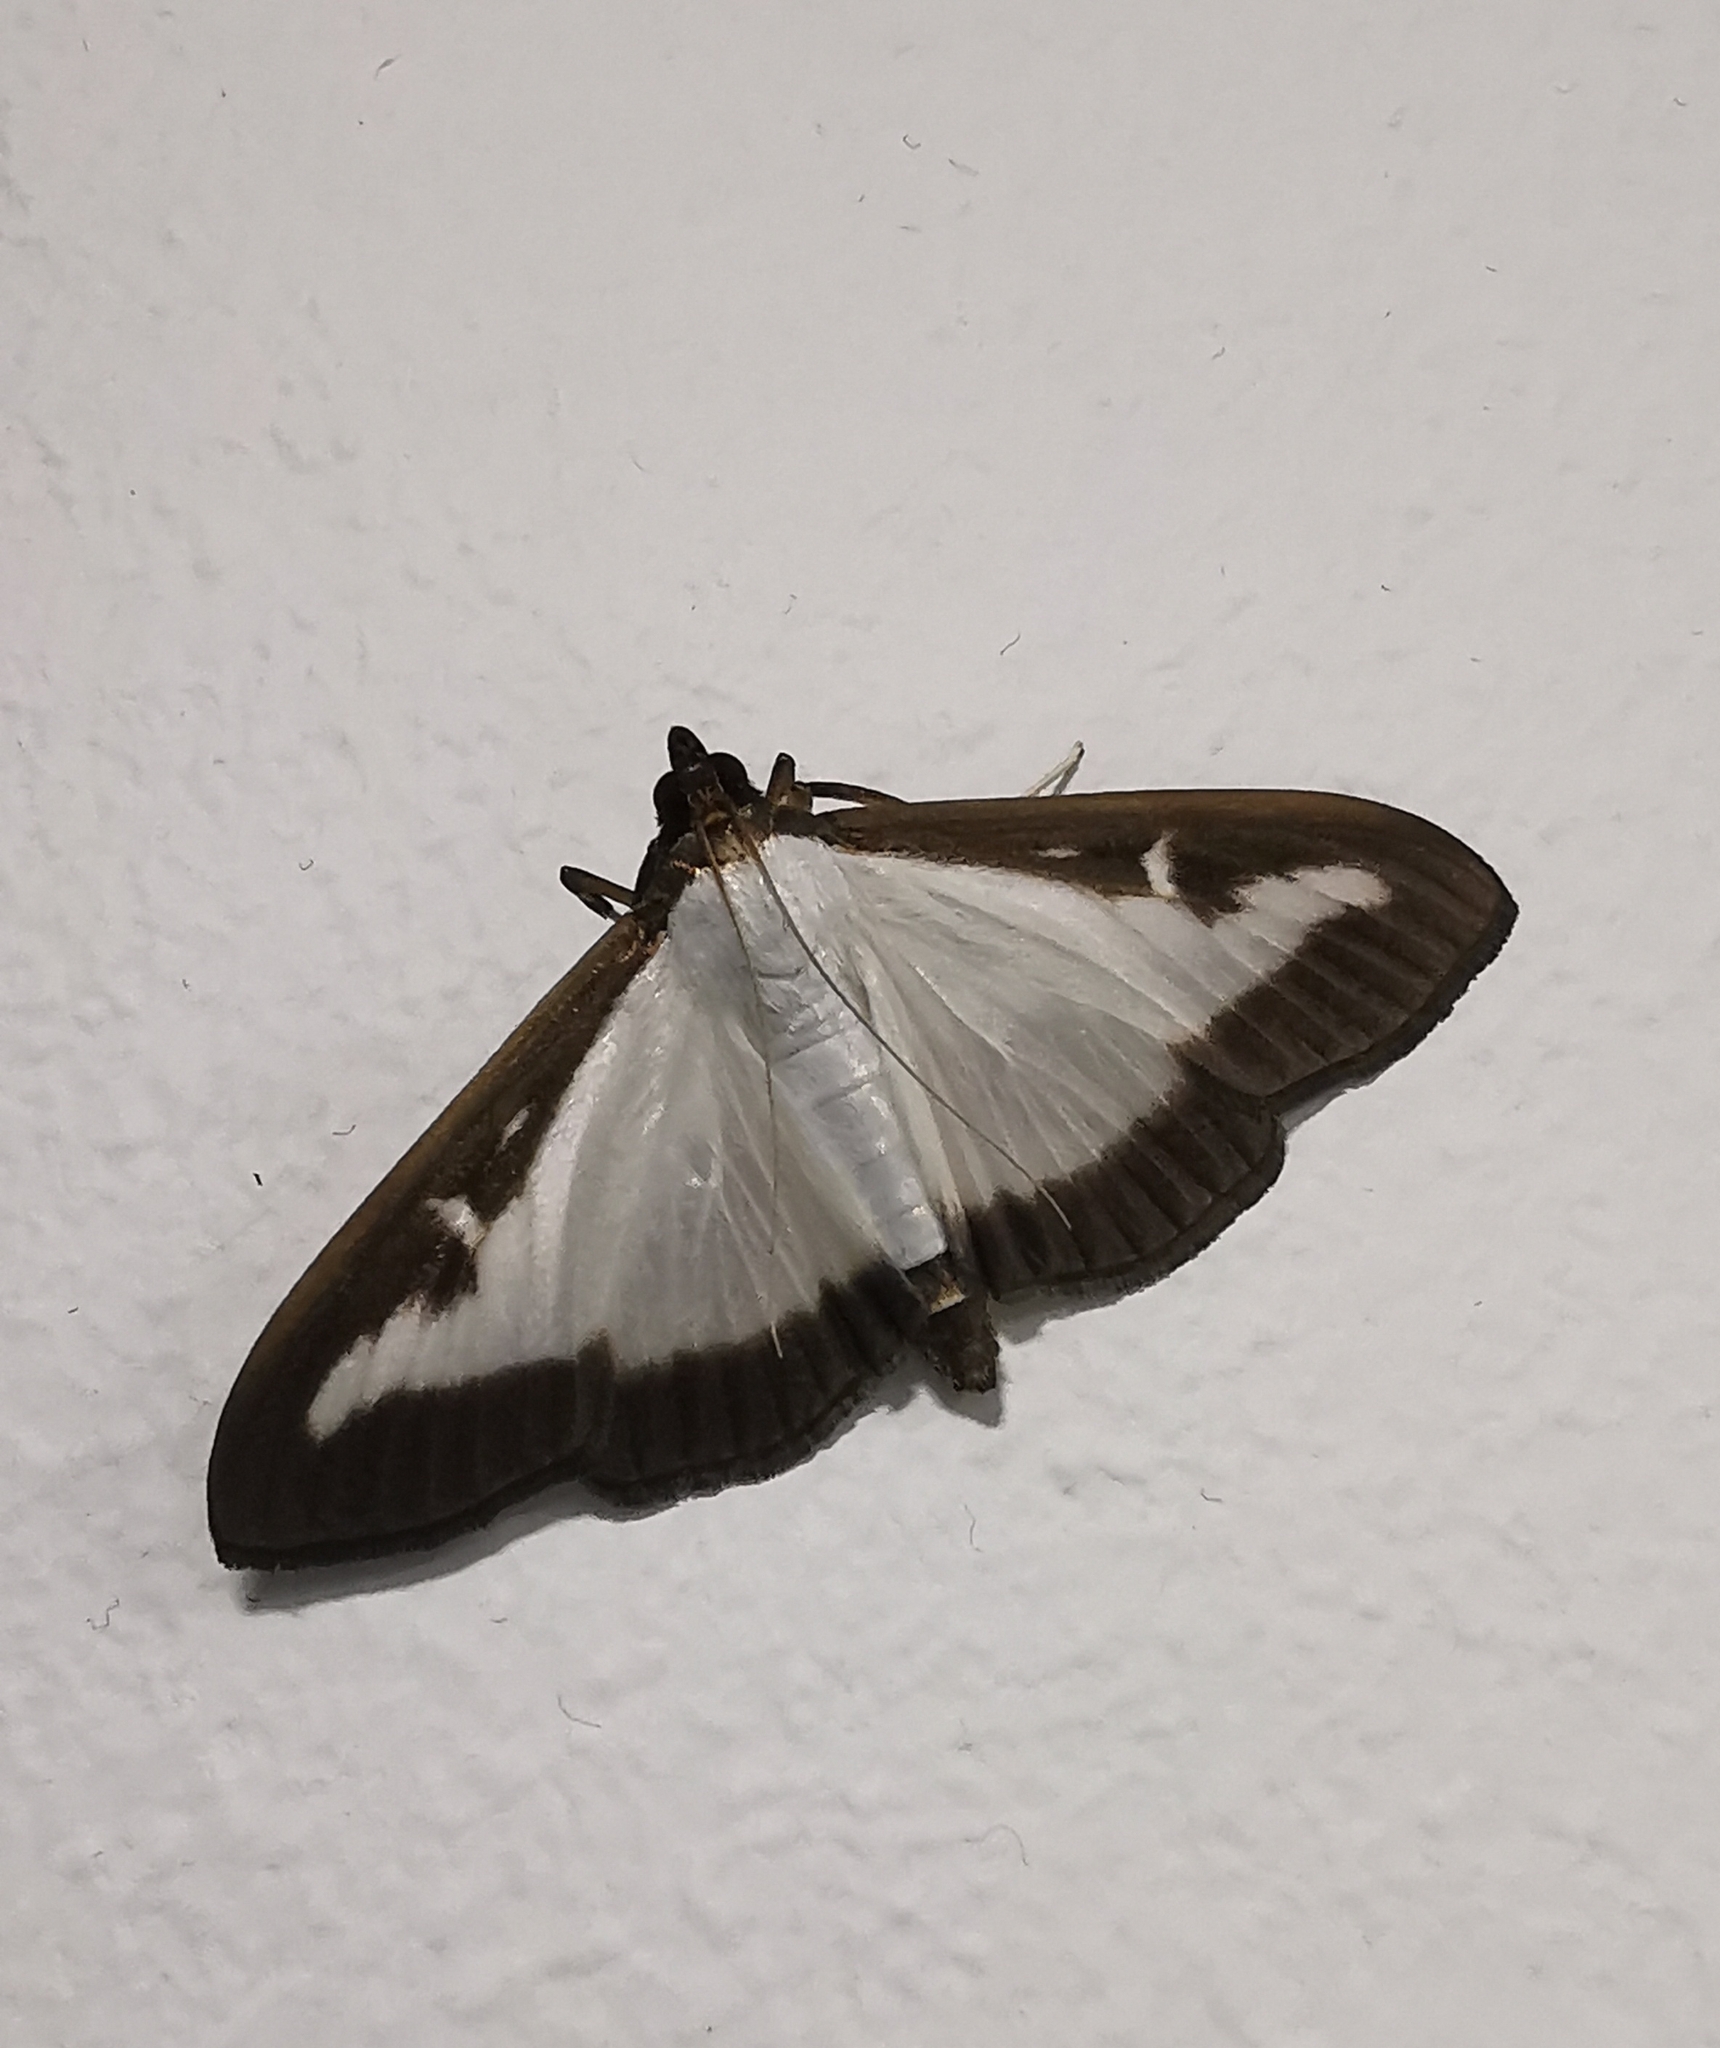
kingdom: Animalia
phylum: Arthropoda
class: Insecta
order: Lepidoptera
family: Crambidae
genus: Cydalima
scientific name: Cydalima perspectalis
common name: Box tree moth
